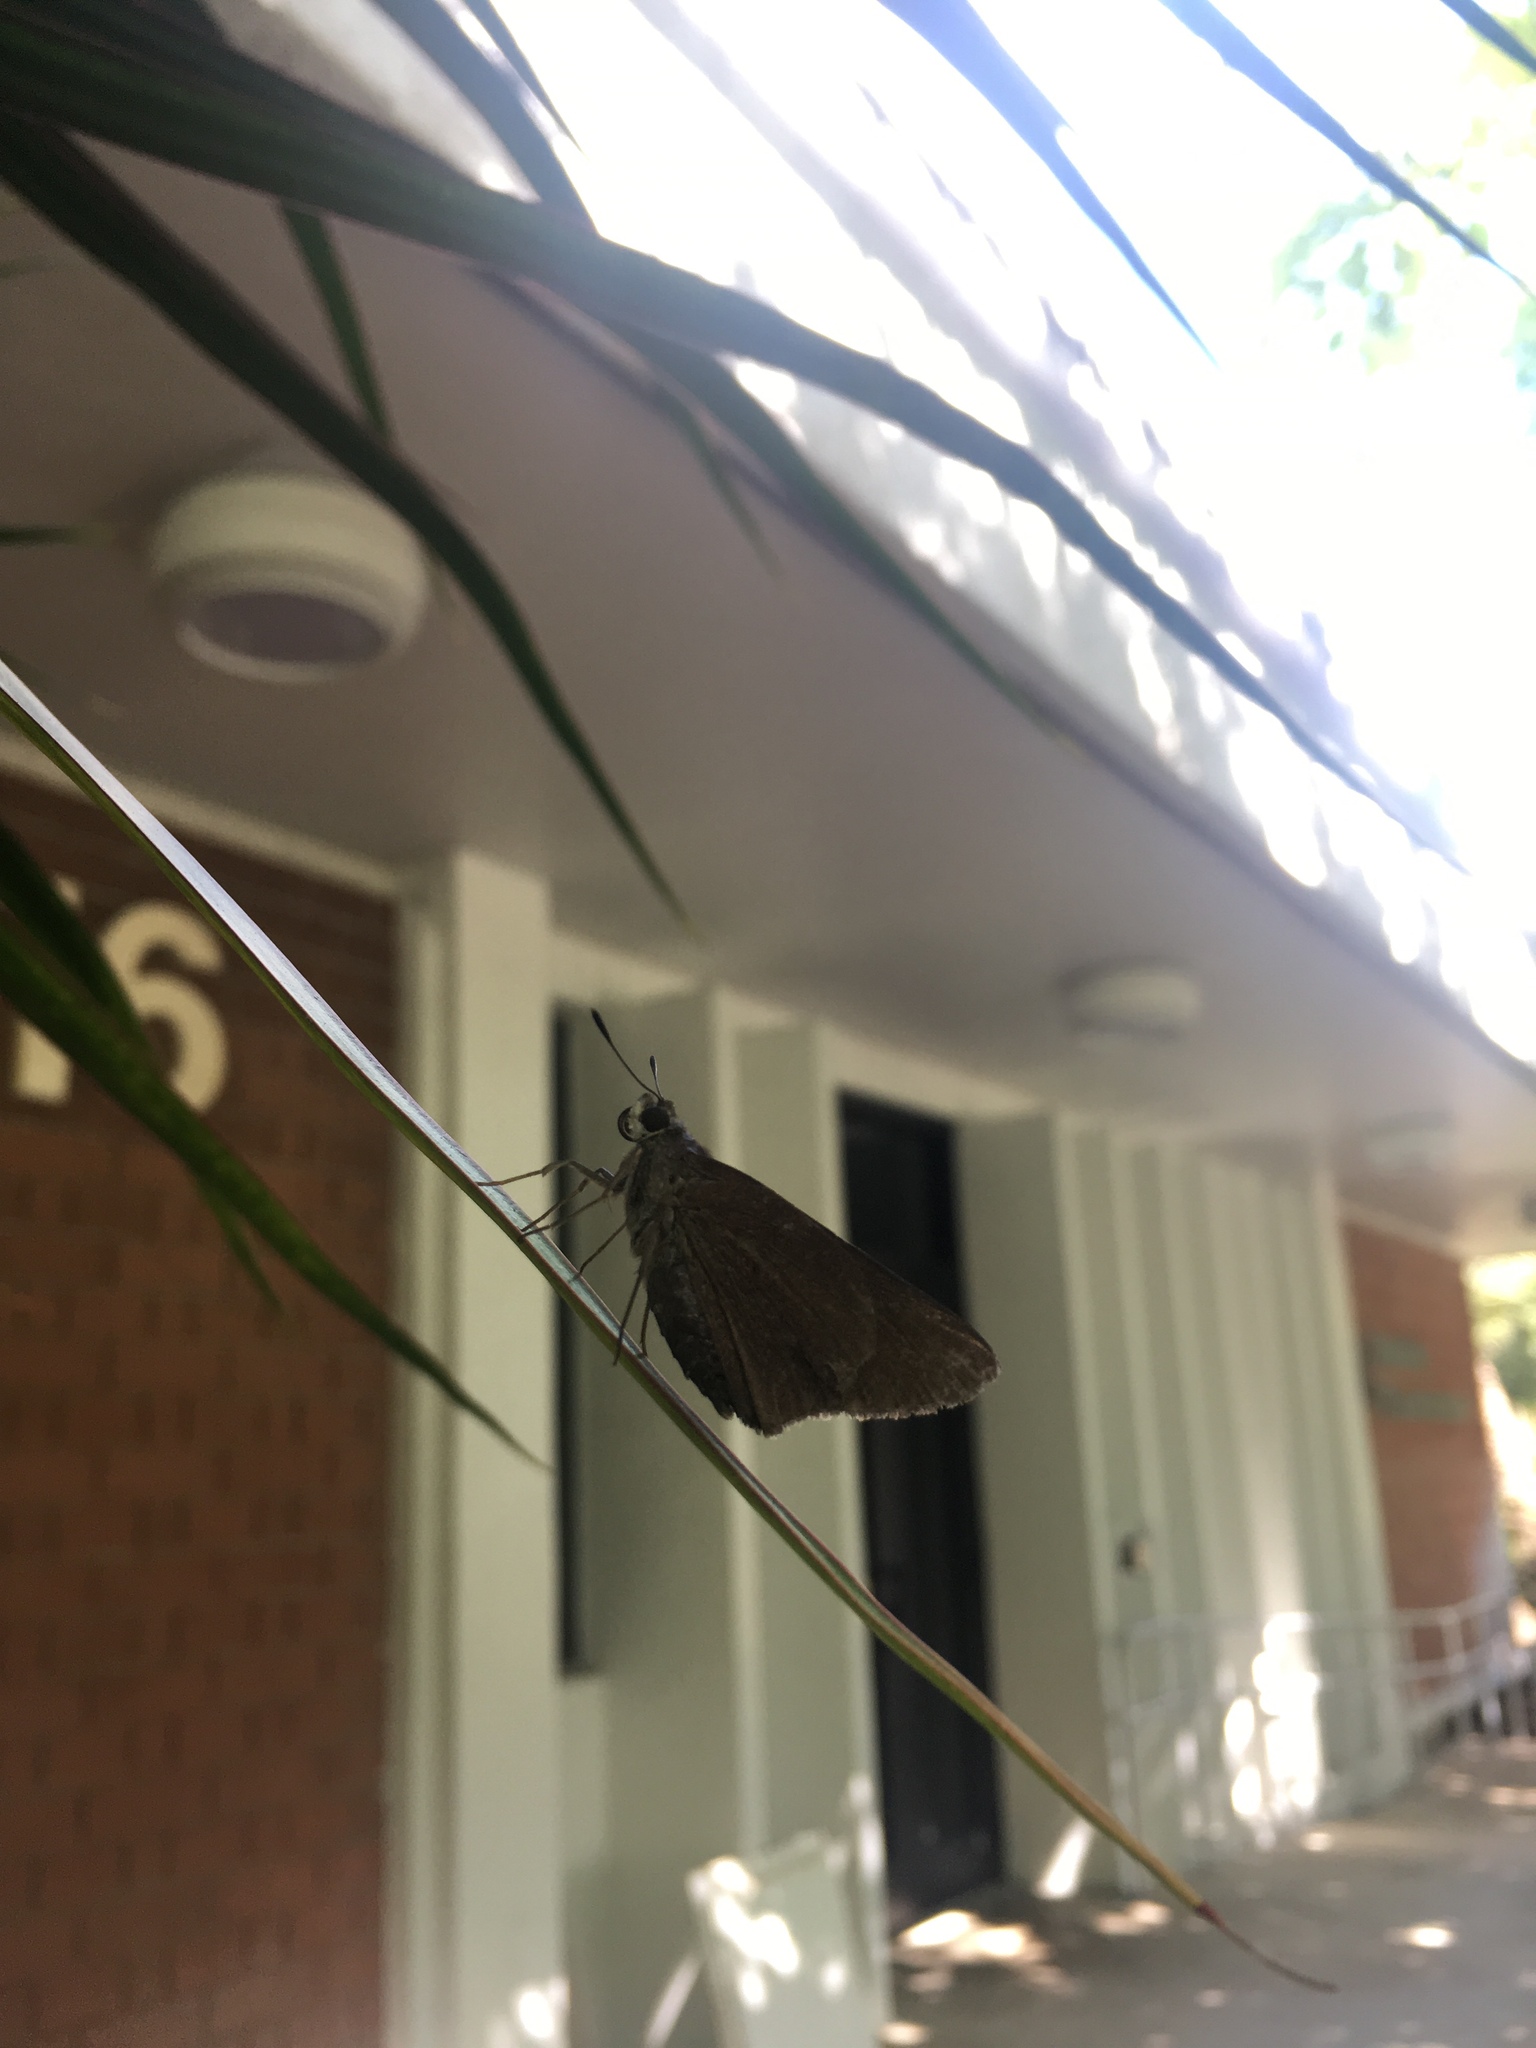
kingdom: Animalia
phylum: Arthropoda
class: Insecta
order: Lepidoptera
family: Hesperiidae
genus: Asbolis
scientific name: Asbolis capucinus
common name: Monk skipper
